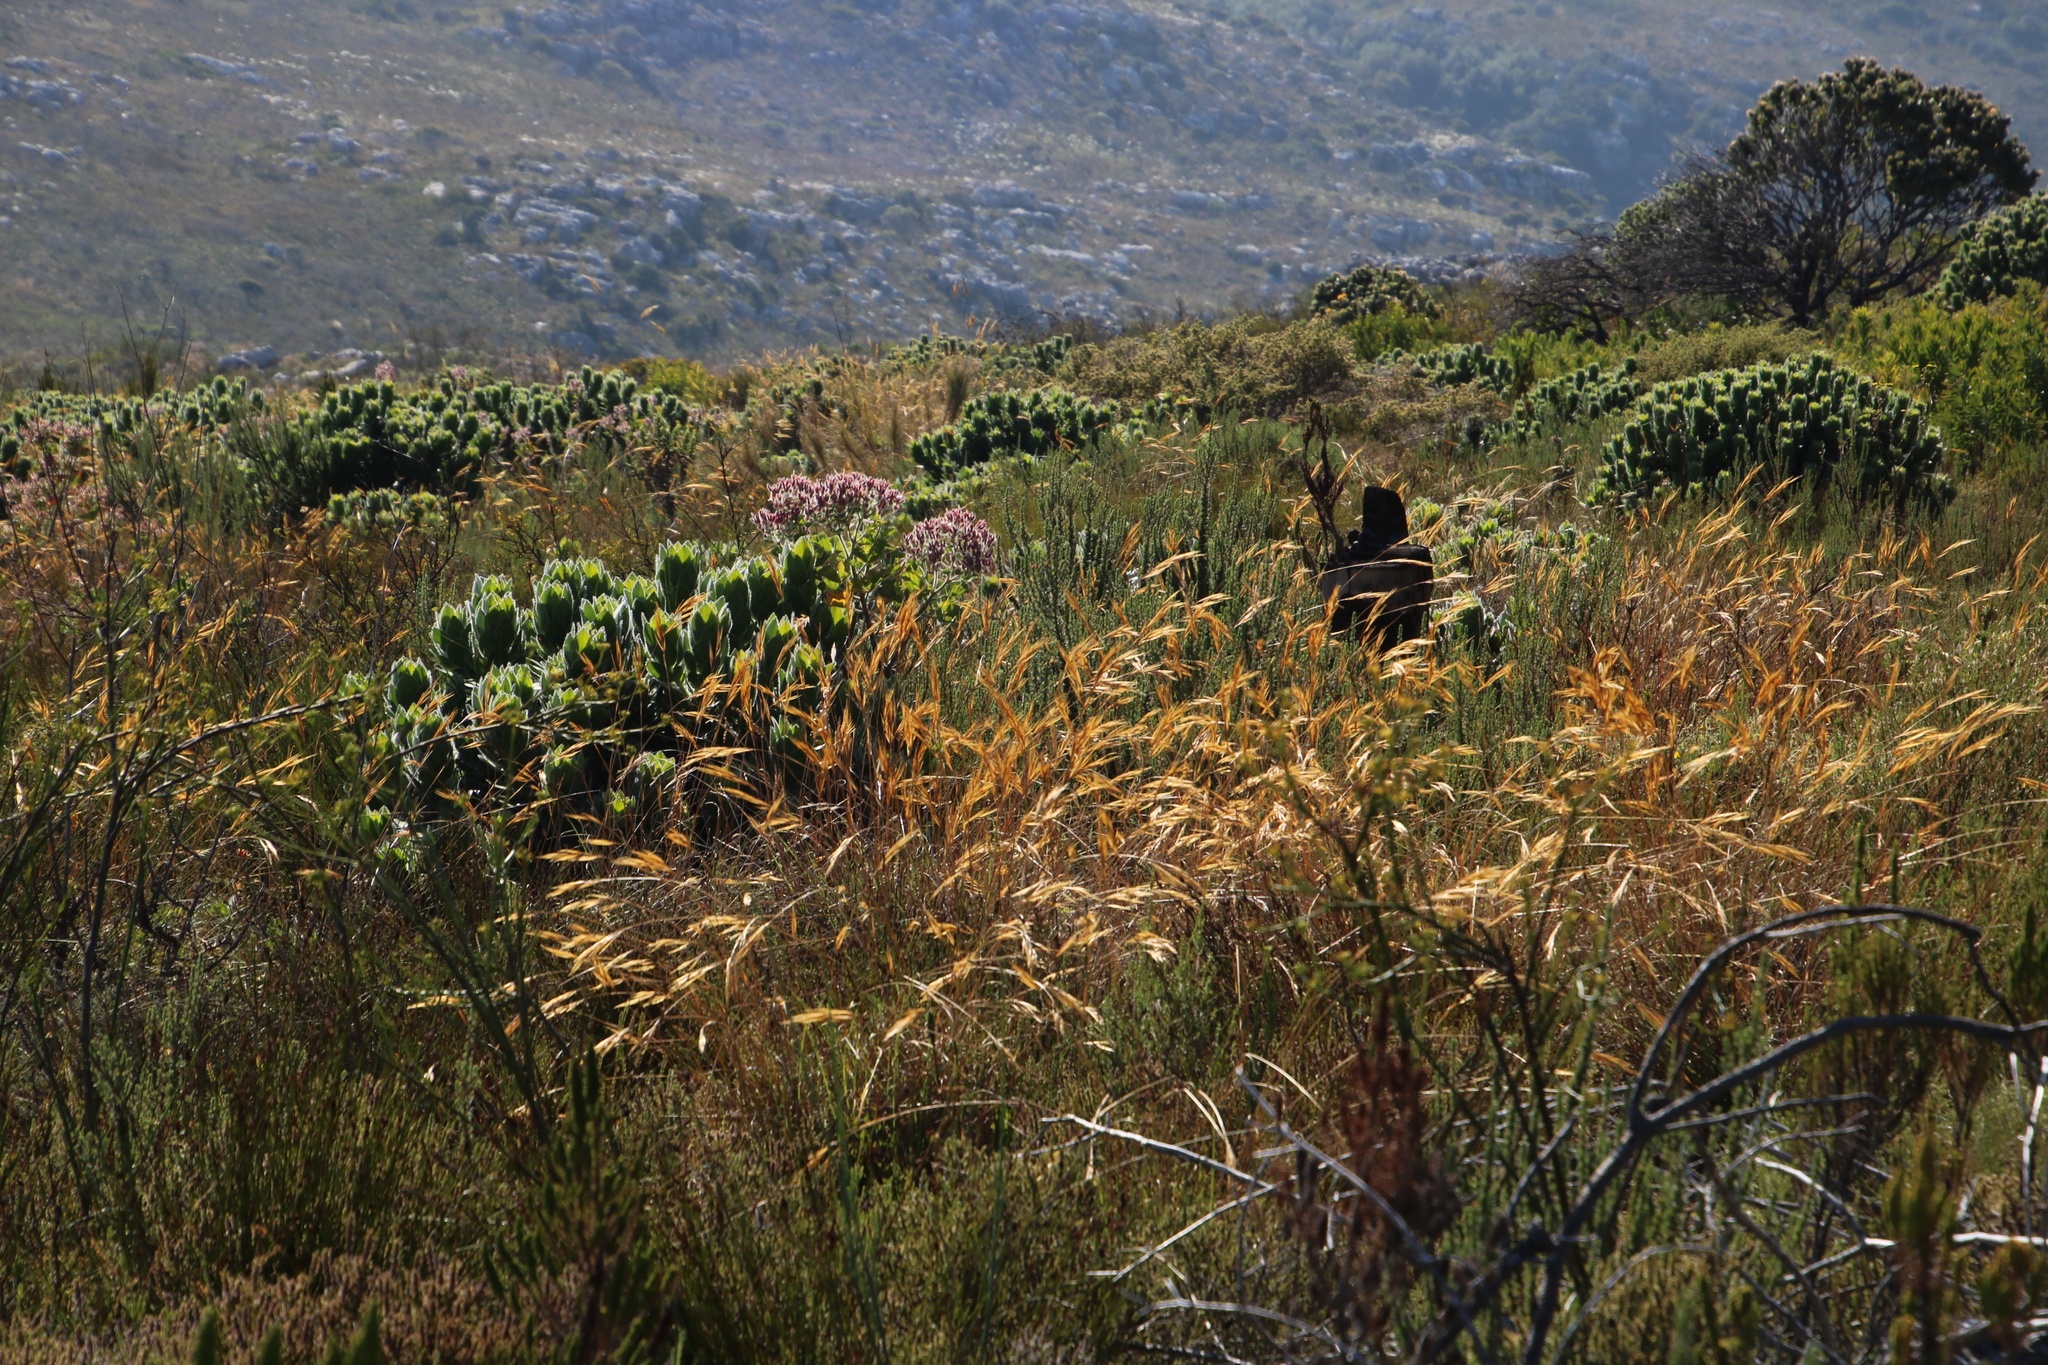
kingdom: Plantae
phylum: Tracheophyta
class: Liliopsida
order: Poales
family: Poaceae
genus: Pseudopentameris
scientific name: Pseudopentameris macrantha
